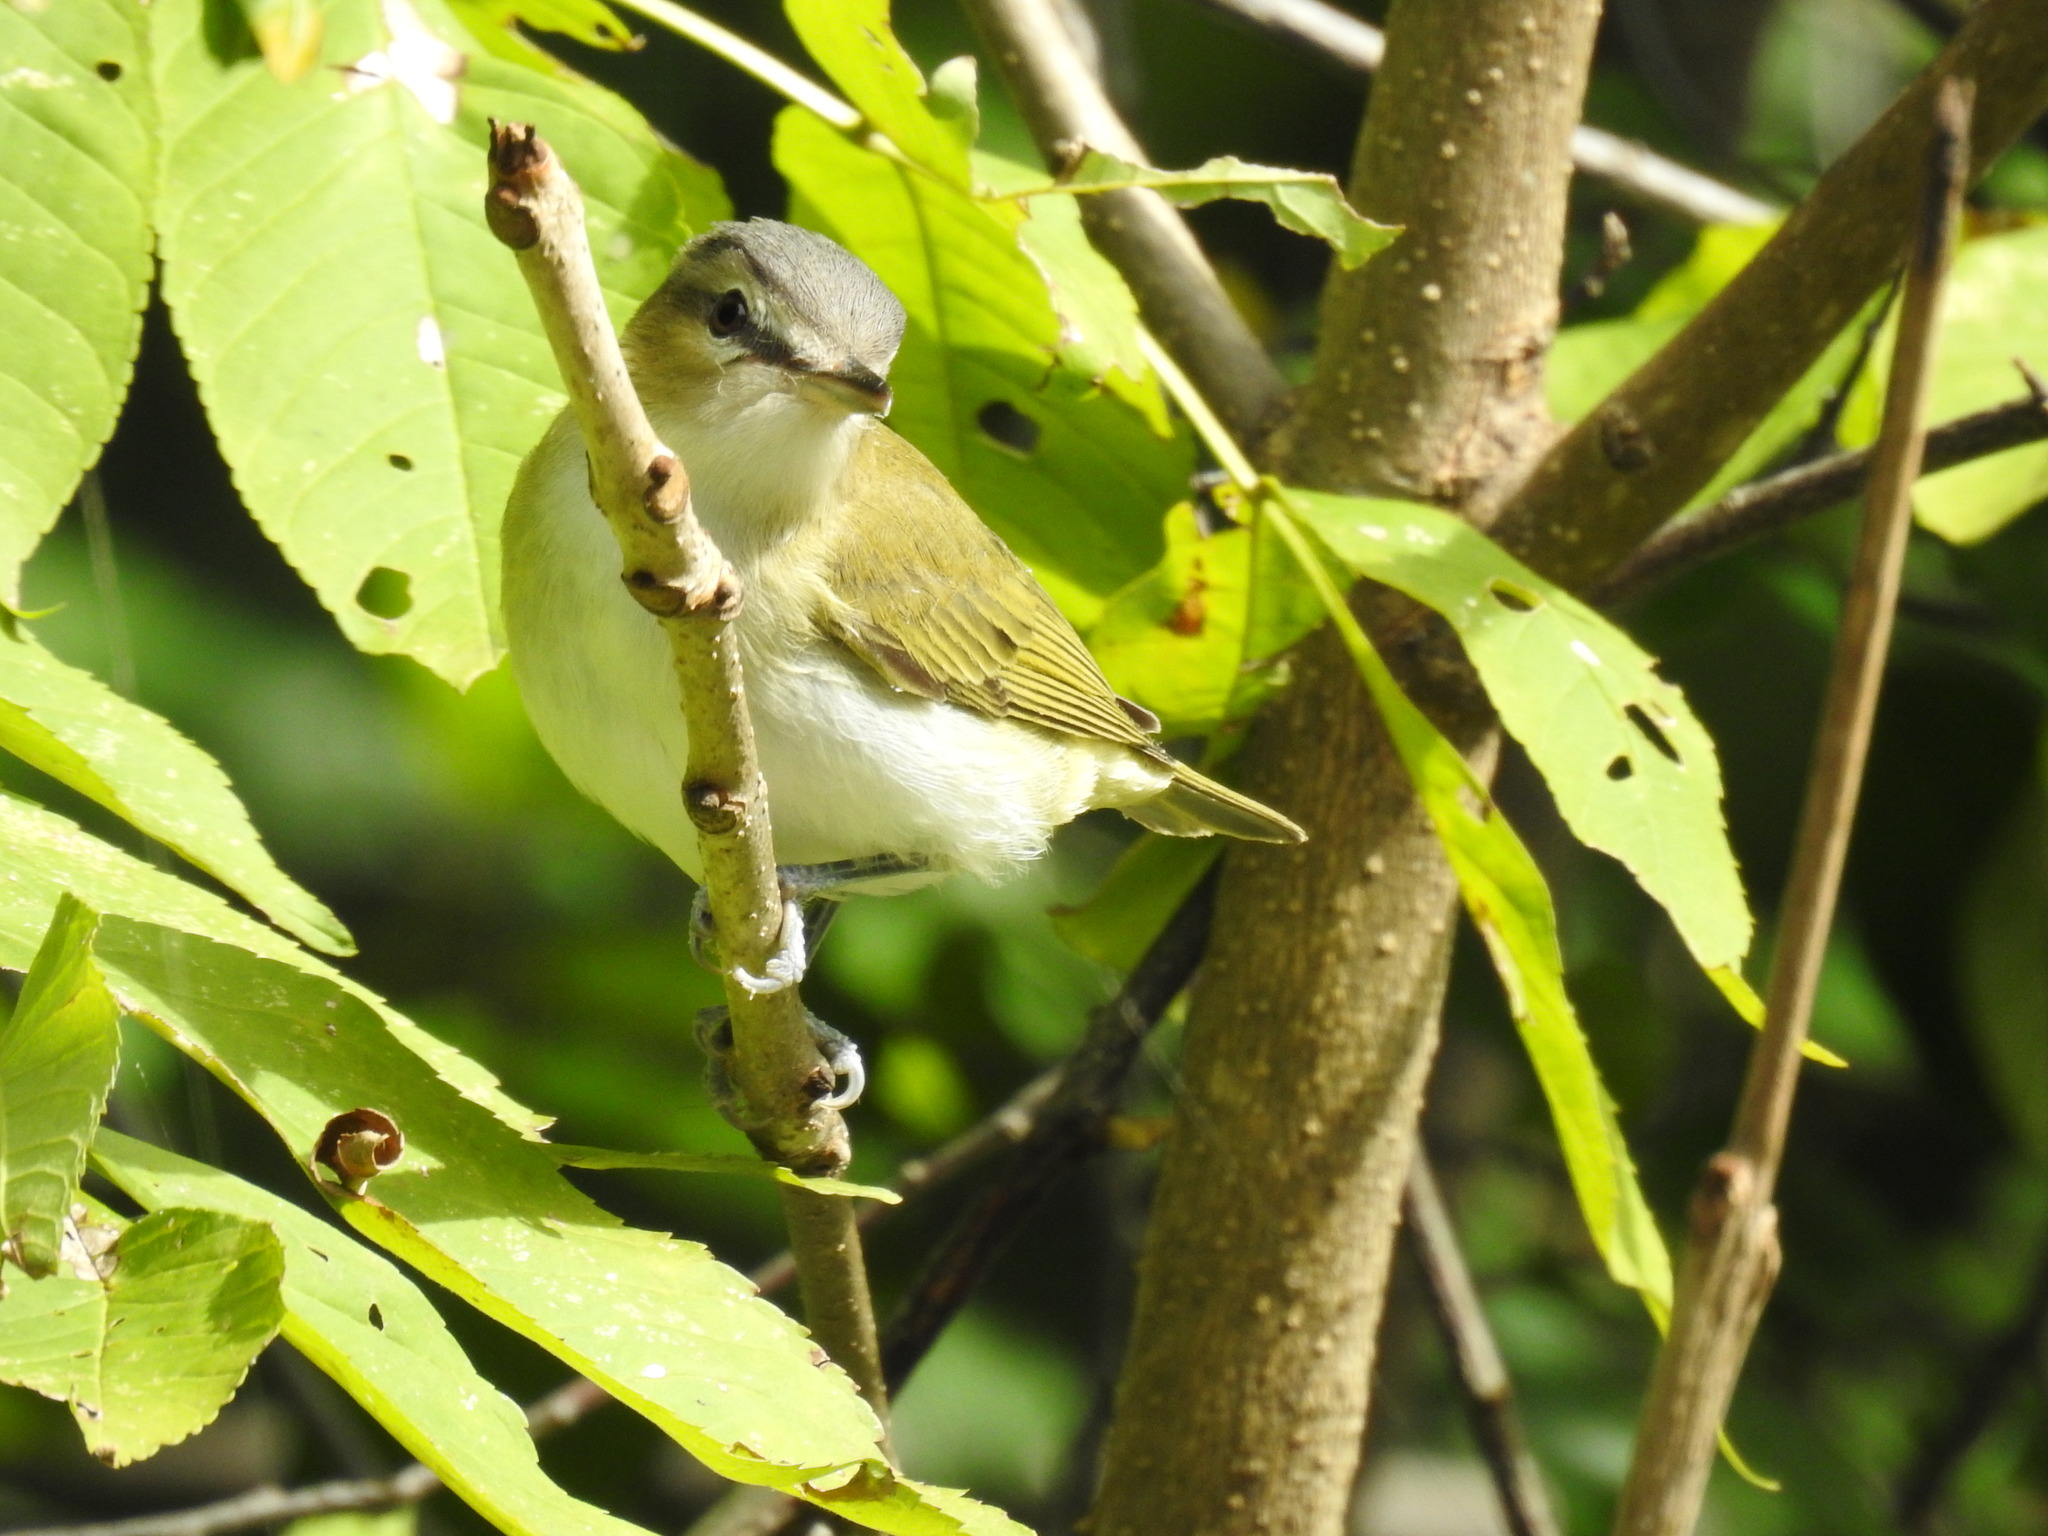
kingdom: Animalia
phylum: Chordata
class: Aves
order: Passeriformes
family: Vireonidae
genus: Vireo
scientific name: Vireo olivaceus
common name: Red-eyed vireo
